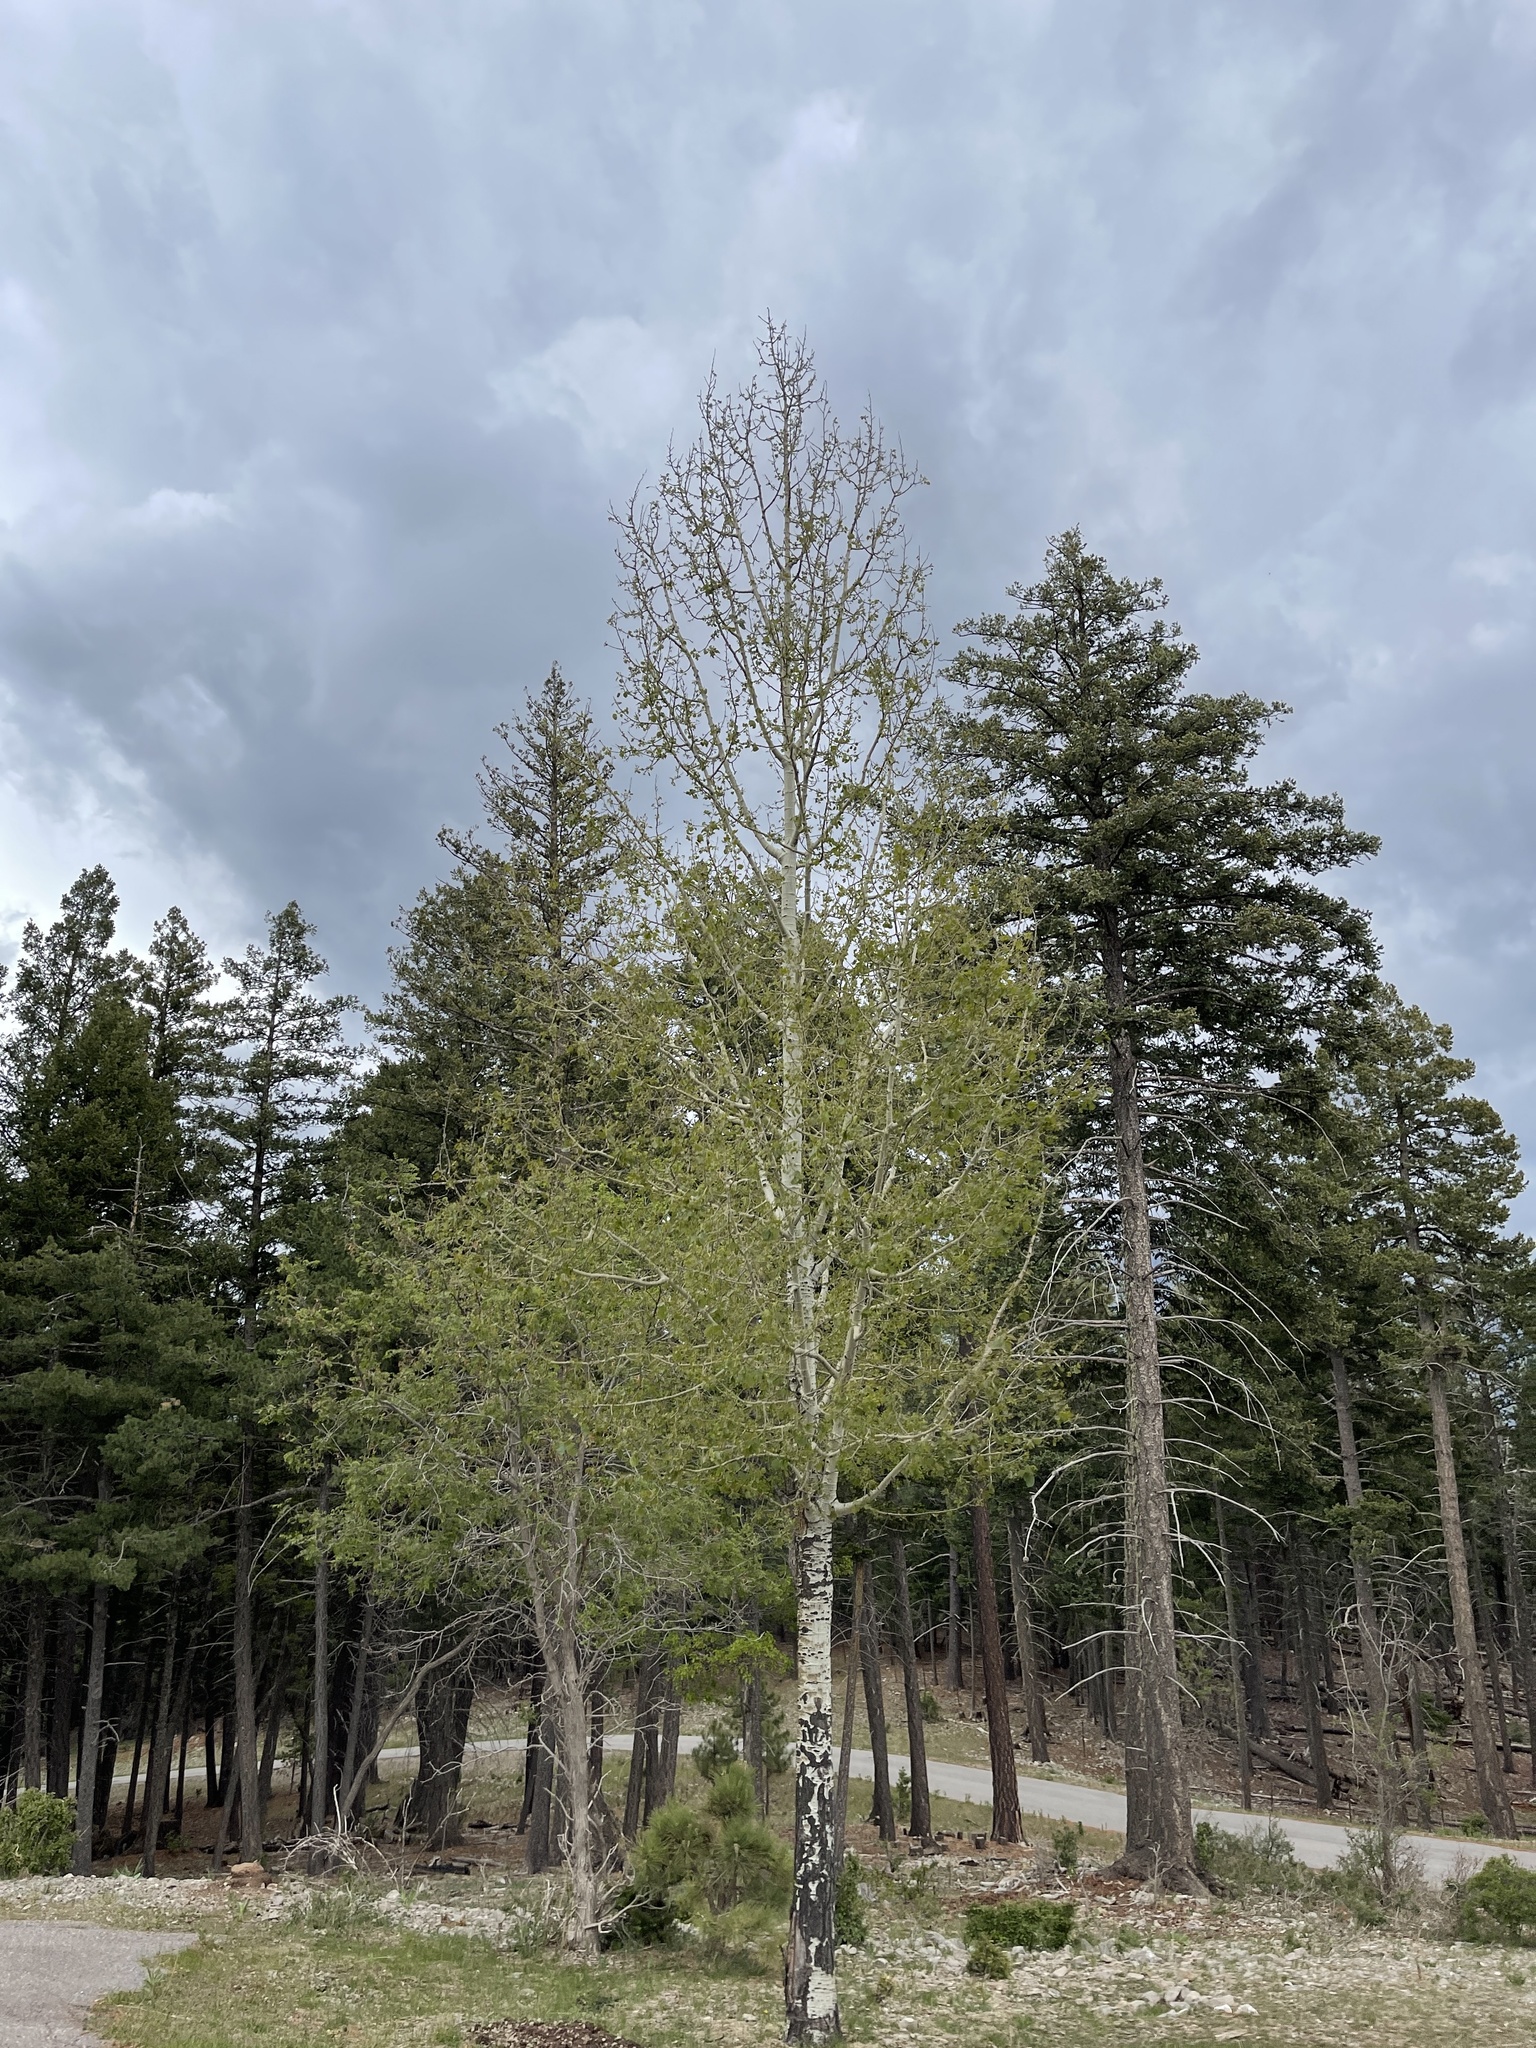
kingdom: Plantae
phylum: Tracheophyta
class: Magnoliopsida
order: Malpighiales
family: Salicaceae
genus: Populus
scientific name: Populus tremuloides
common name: Quaking aspen
